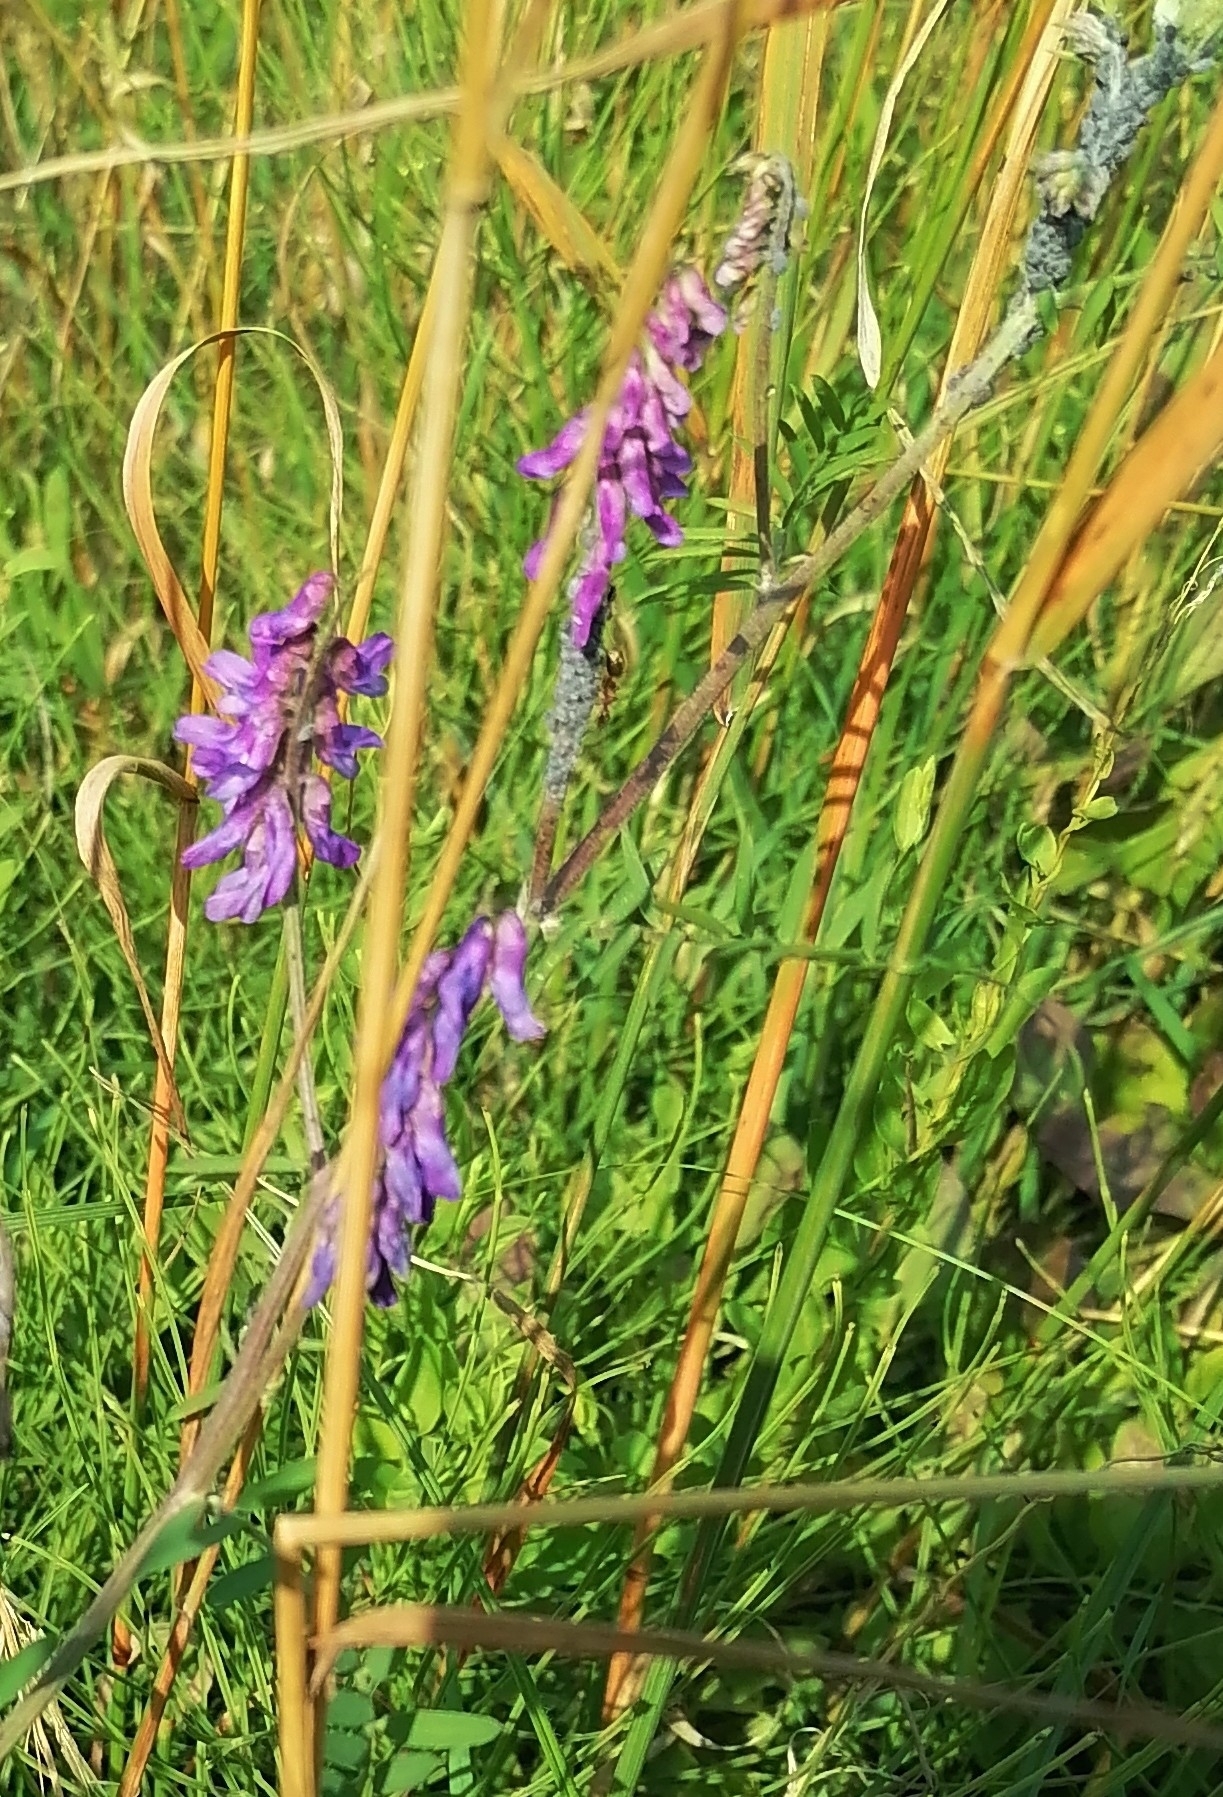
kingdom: Plantae
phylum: Tracheophyta
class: Magnoliopsida
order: Fabales
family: Fabaceae
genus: Vicia
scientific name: Vicia cracca
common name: Bird vetch
